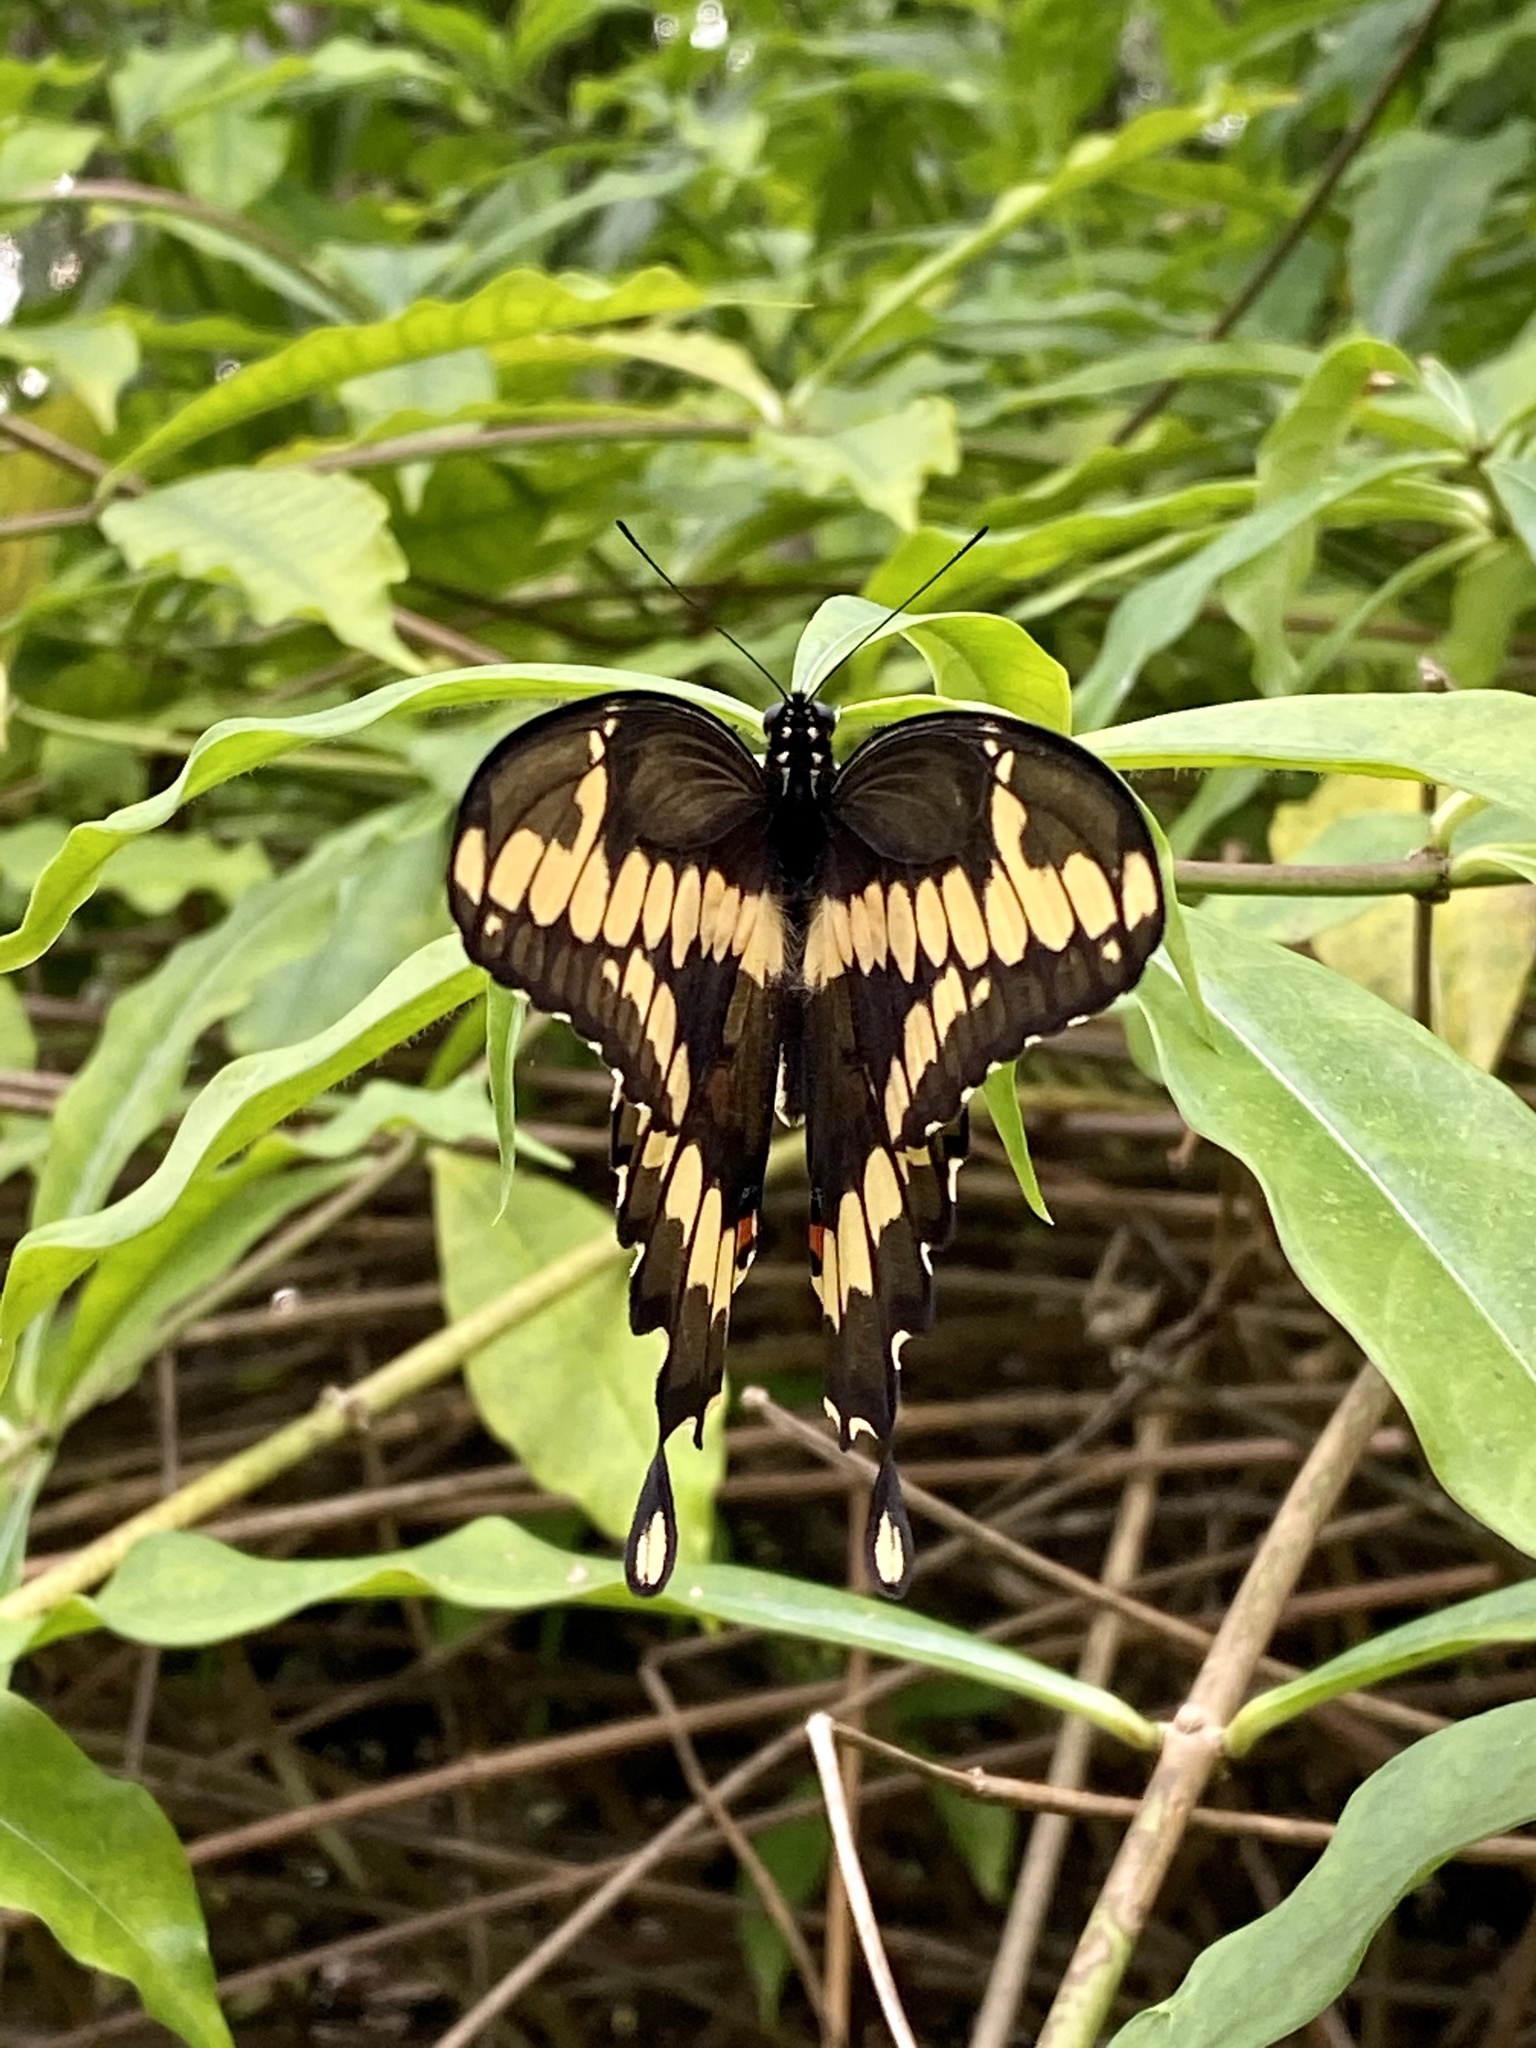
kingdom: Animalia
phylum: Arthropoda
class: Insecta
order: Lepidoptera
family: Papilionidae
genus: Papilio
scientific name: Papilio cresphontes
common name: Giant swallowtail
